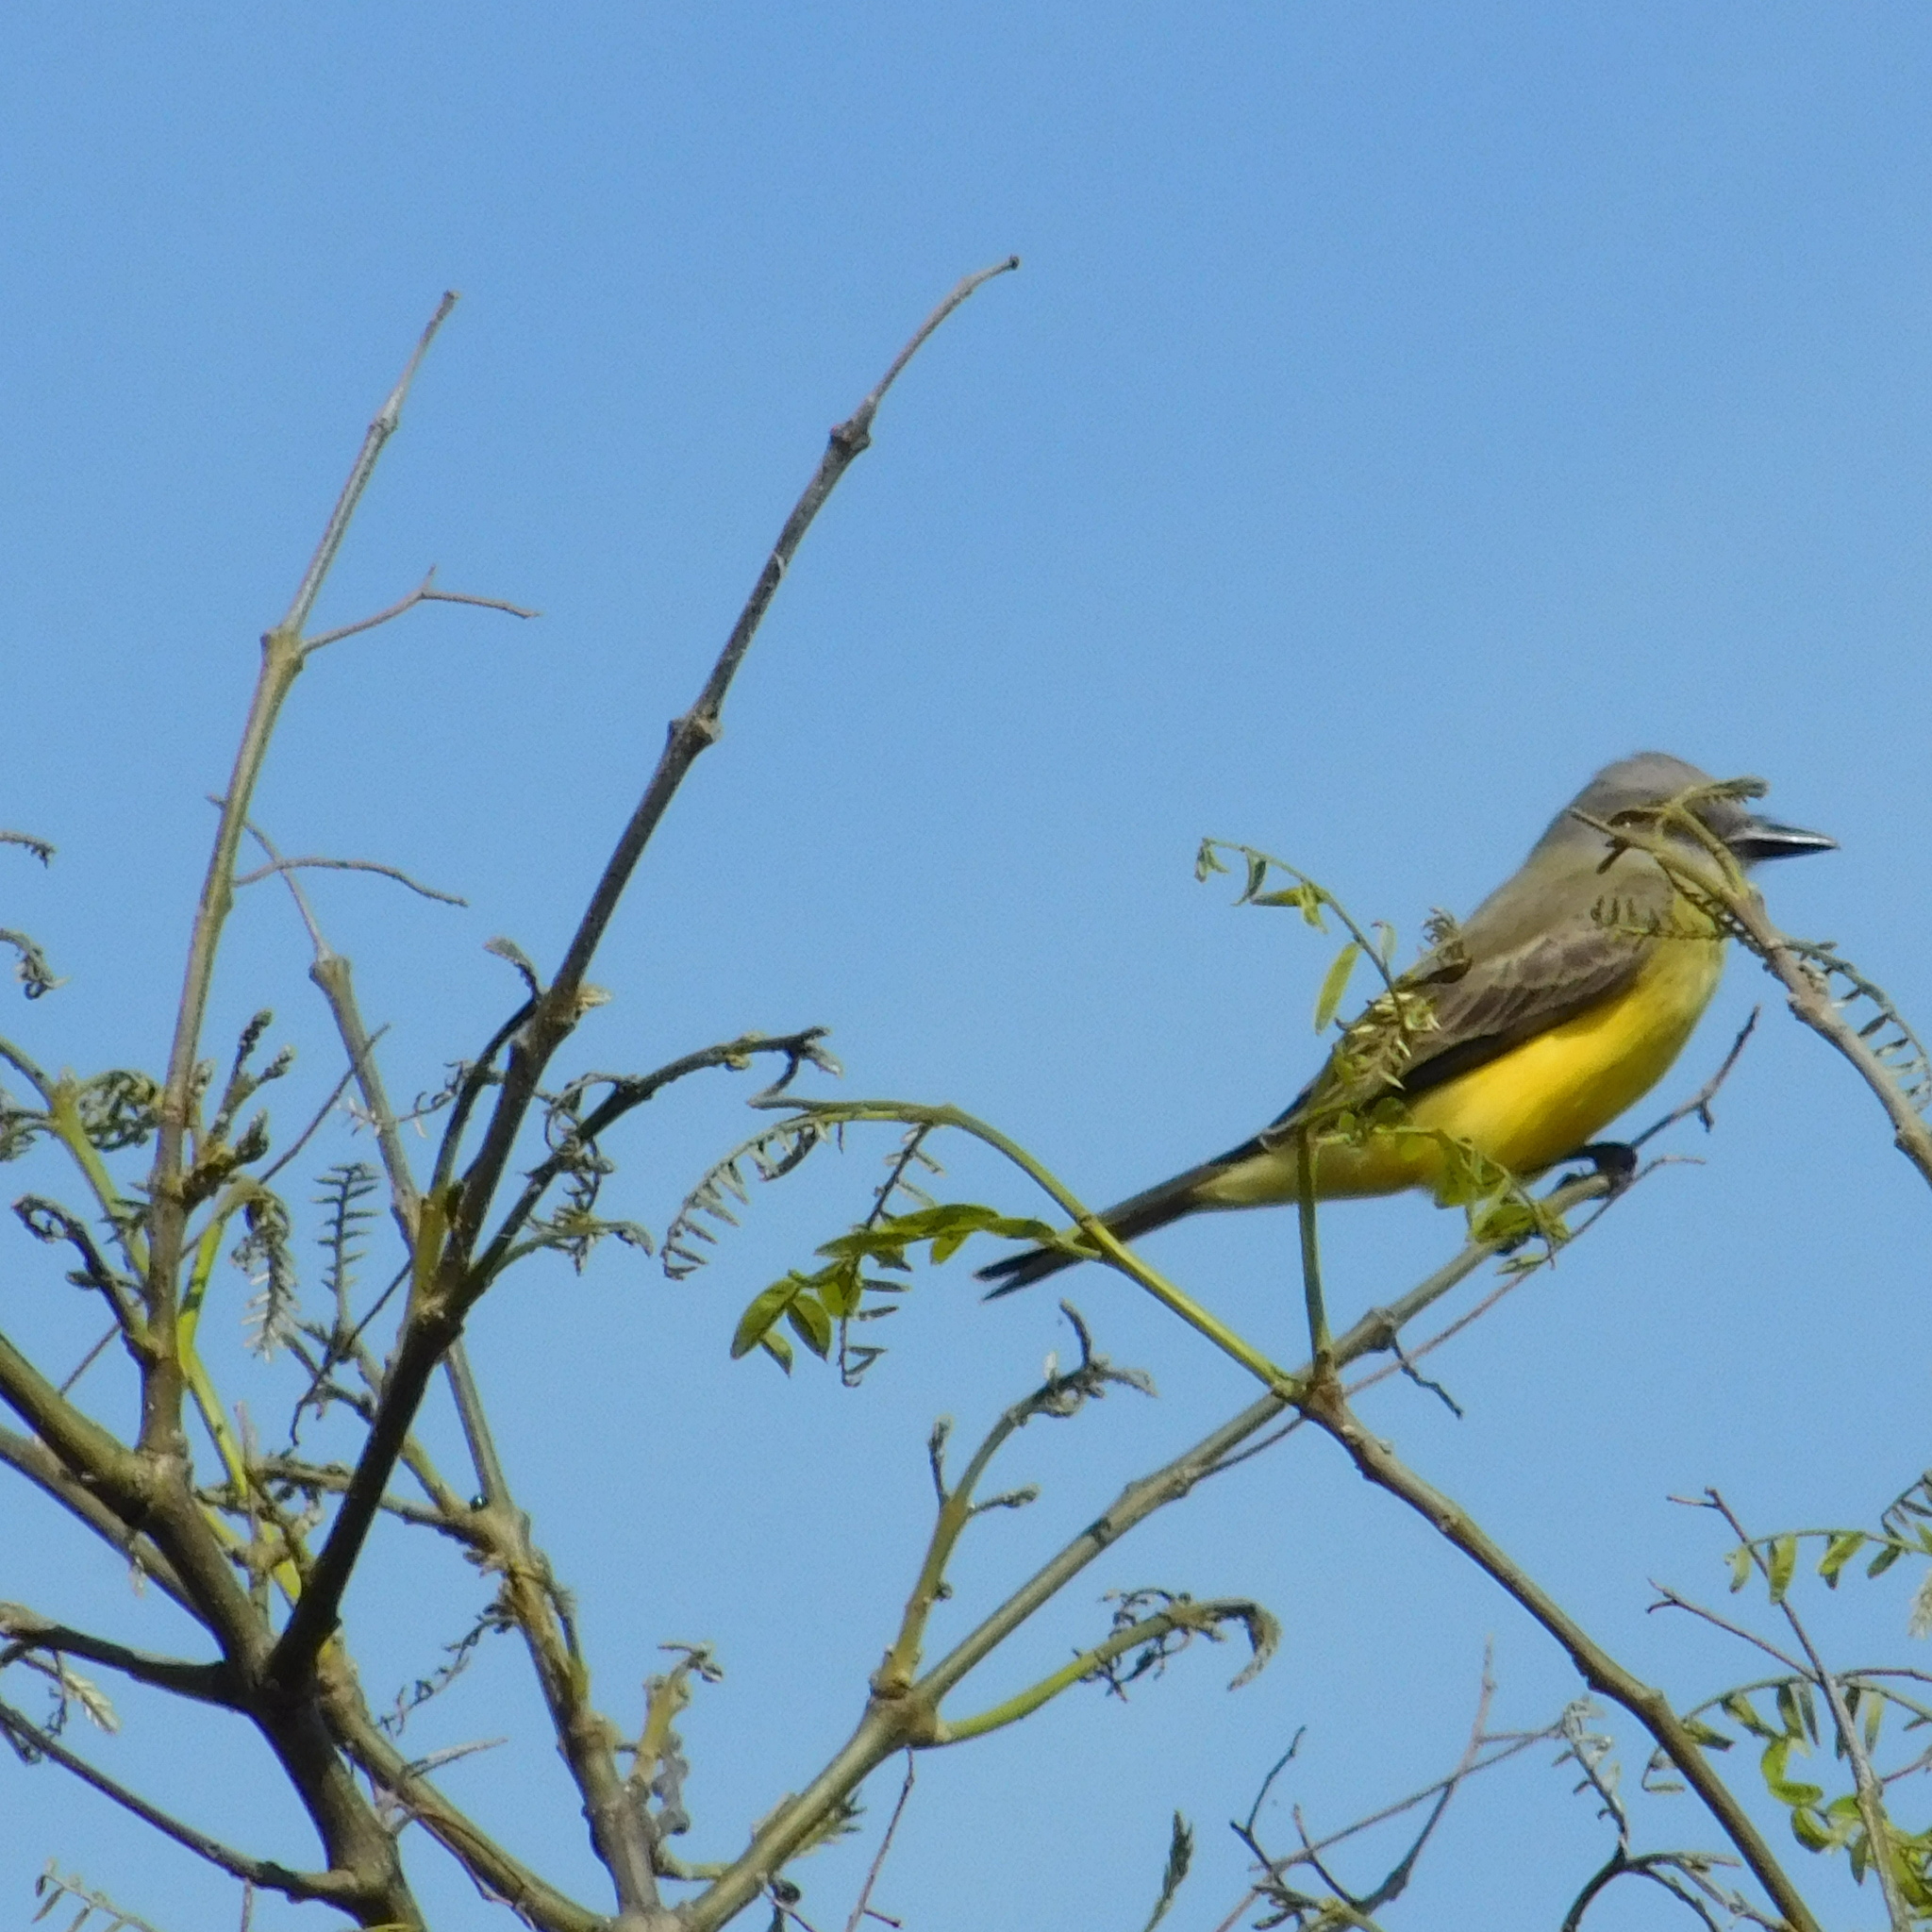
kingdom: Animalia
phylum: Chordata
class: Aves
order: Passeriformes
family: Tyrannidae
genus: Tyrannus
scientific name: Tyrannus melancholicus
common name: Tropical kingbird
